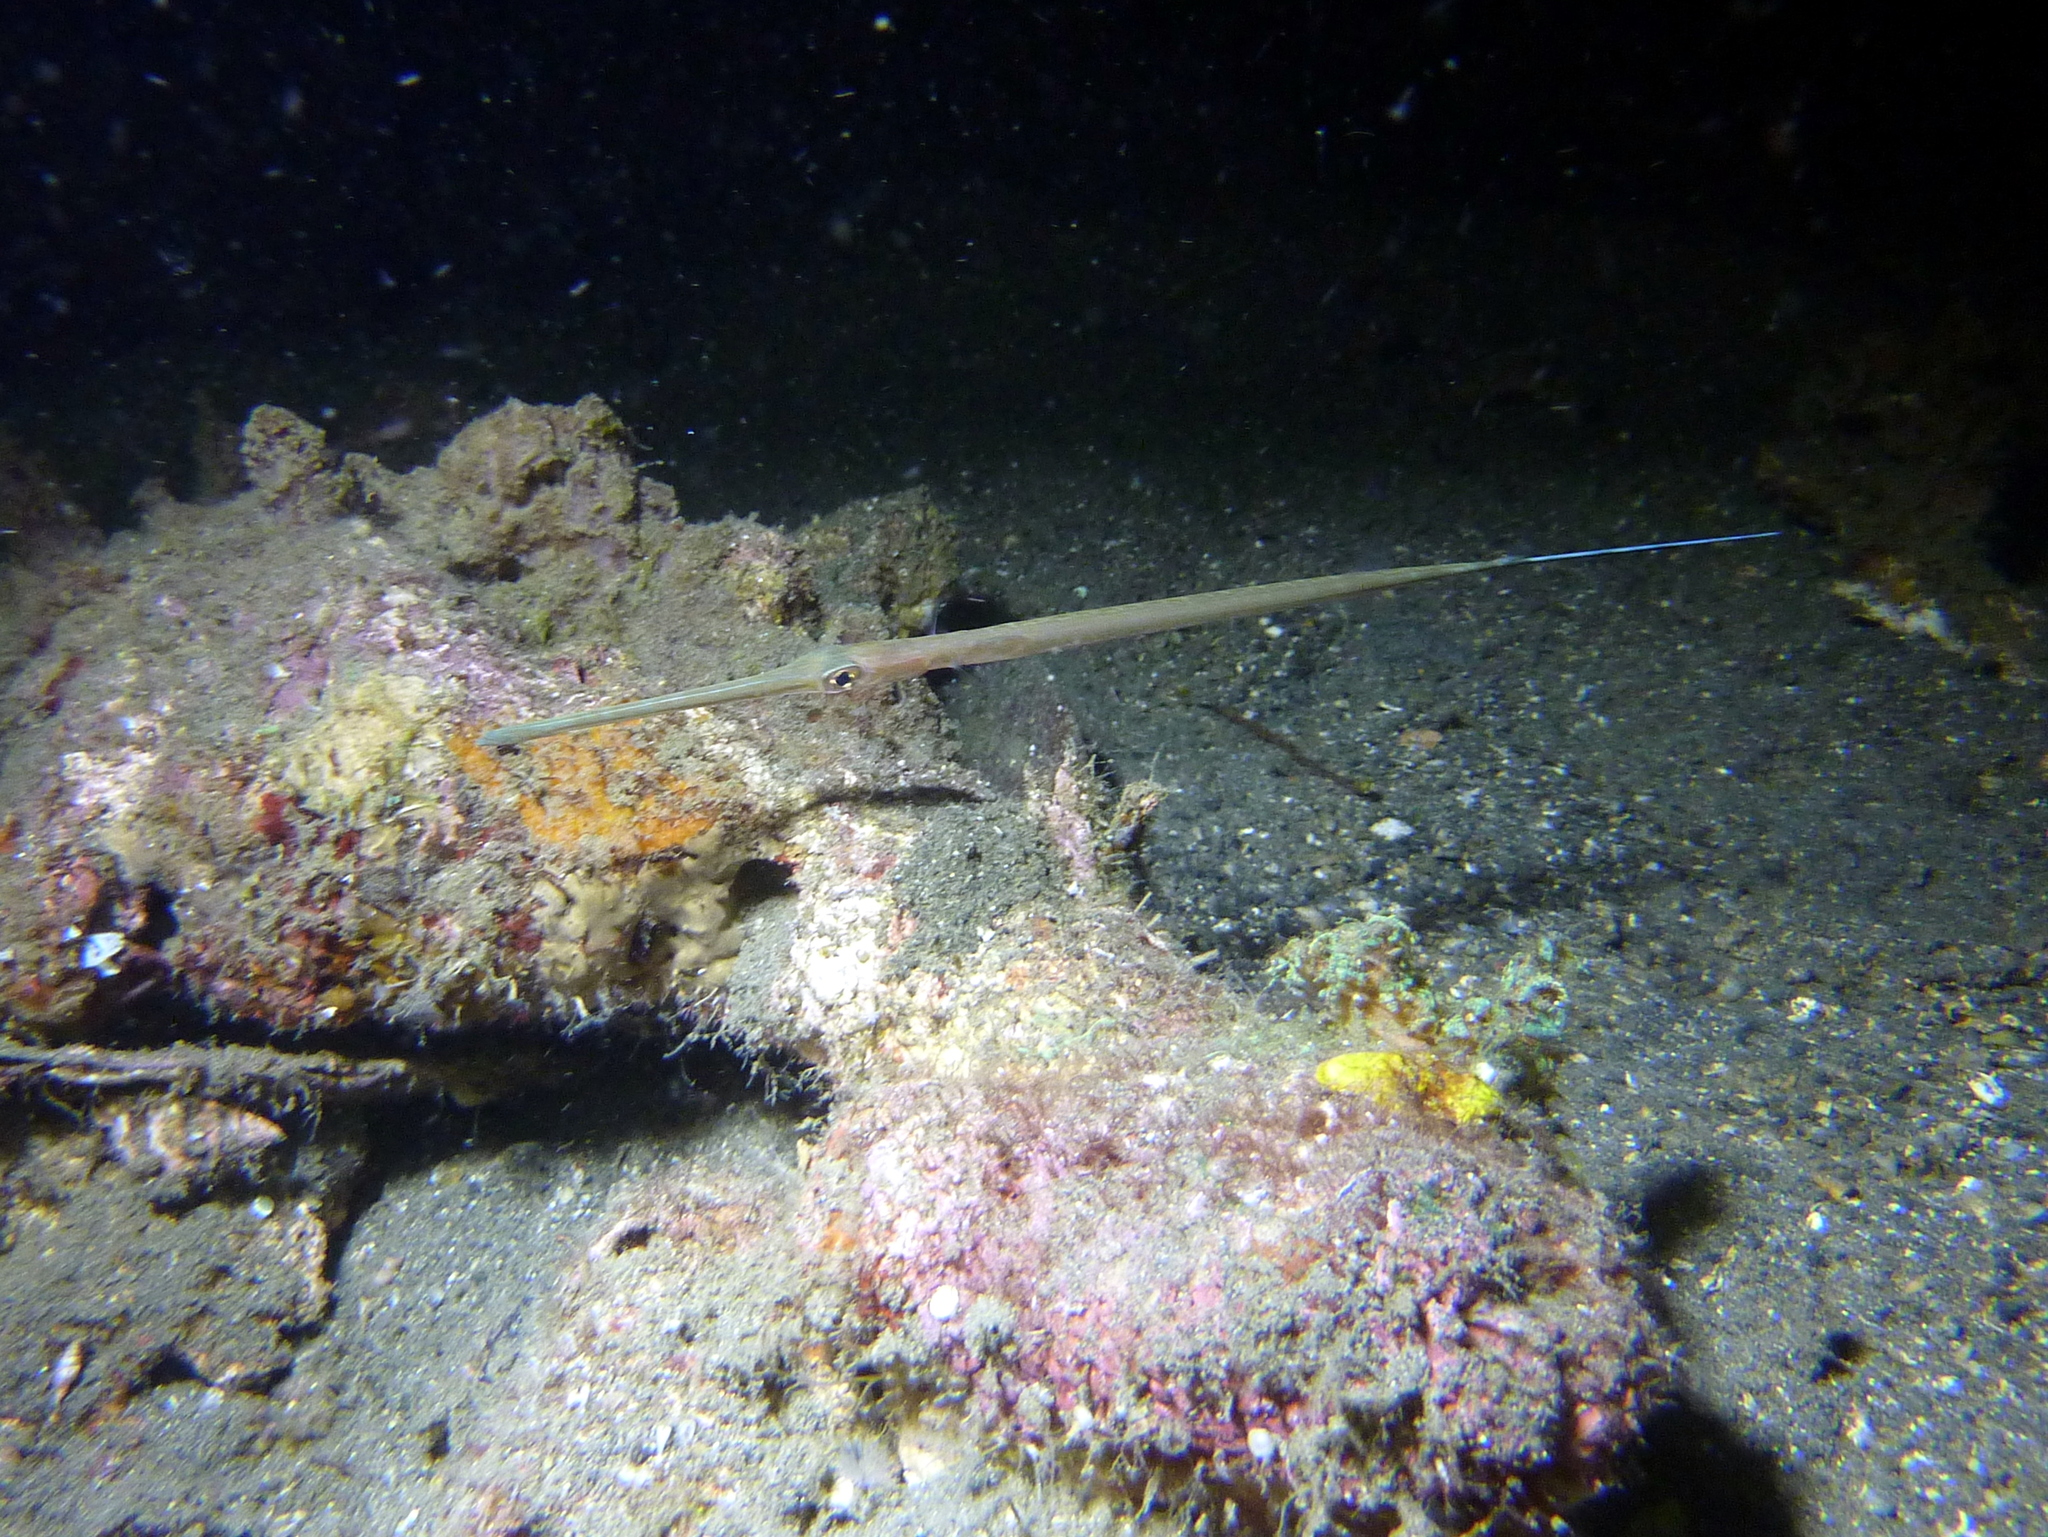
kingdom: Animalia
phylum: Chordata
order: Syngnathiformes
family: Fistulariidae
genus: Fistularia
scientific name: Fistularia commersonii
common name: Bluespotted cornetfish
